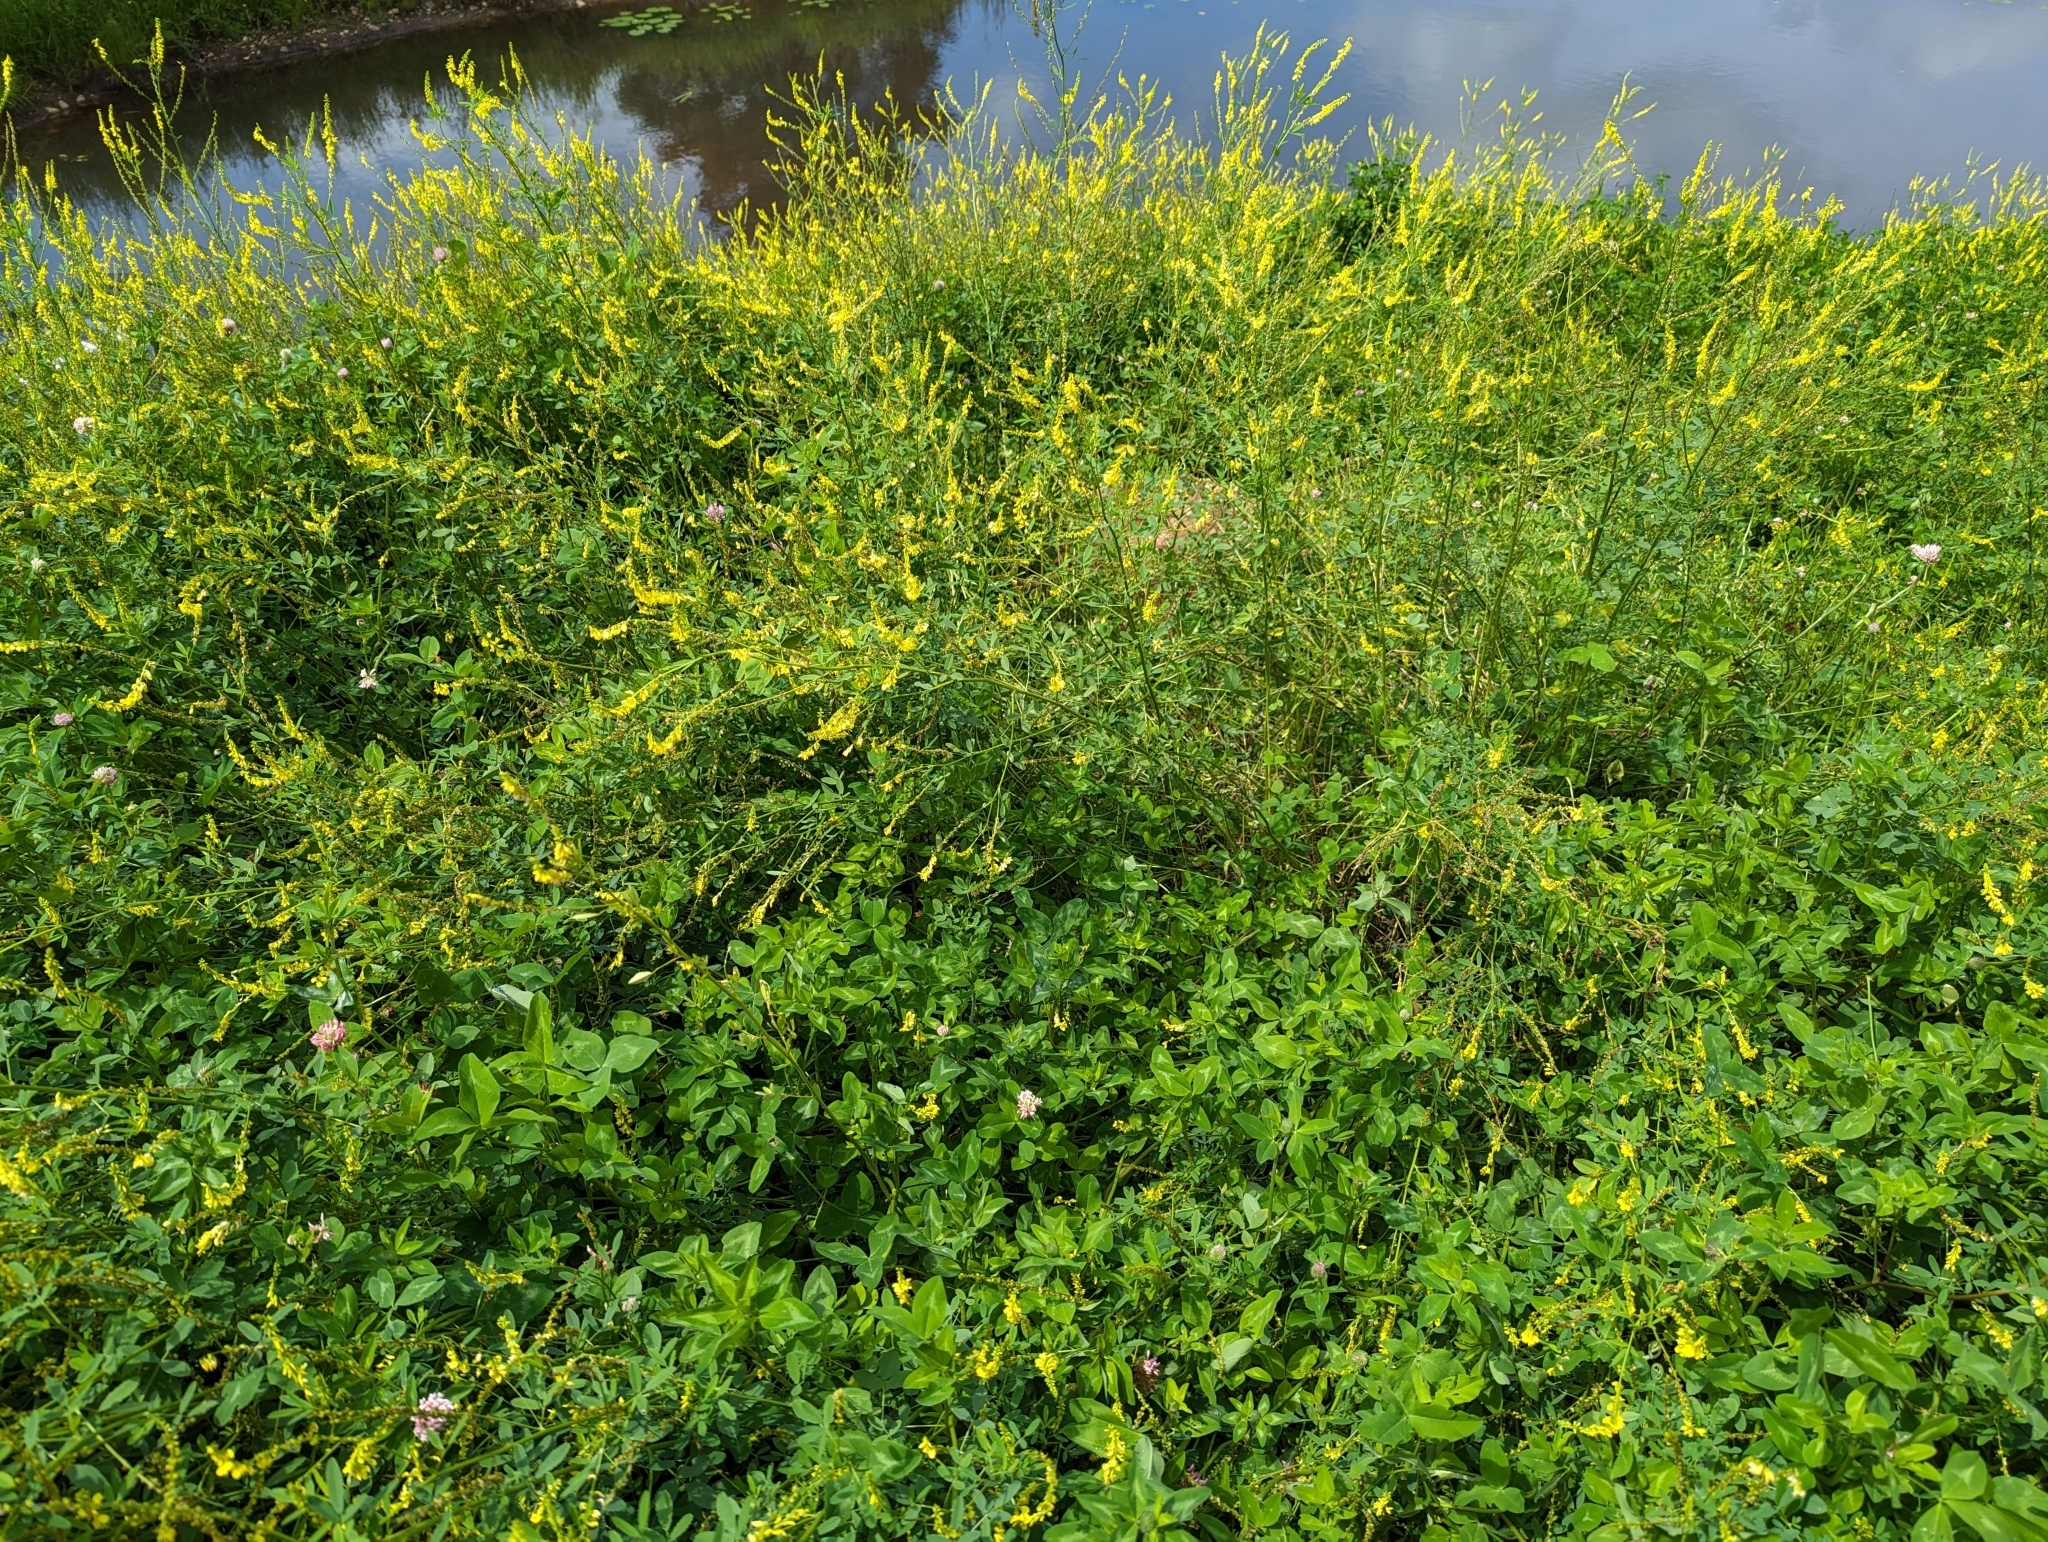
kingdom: Plantae
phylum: Tracheophyta
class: Magnoliopsida
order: Fabales
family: Fabaceae
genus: Melilotus
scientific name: Melilotus officinalis
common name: Sweetclover
